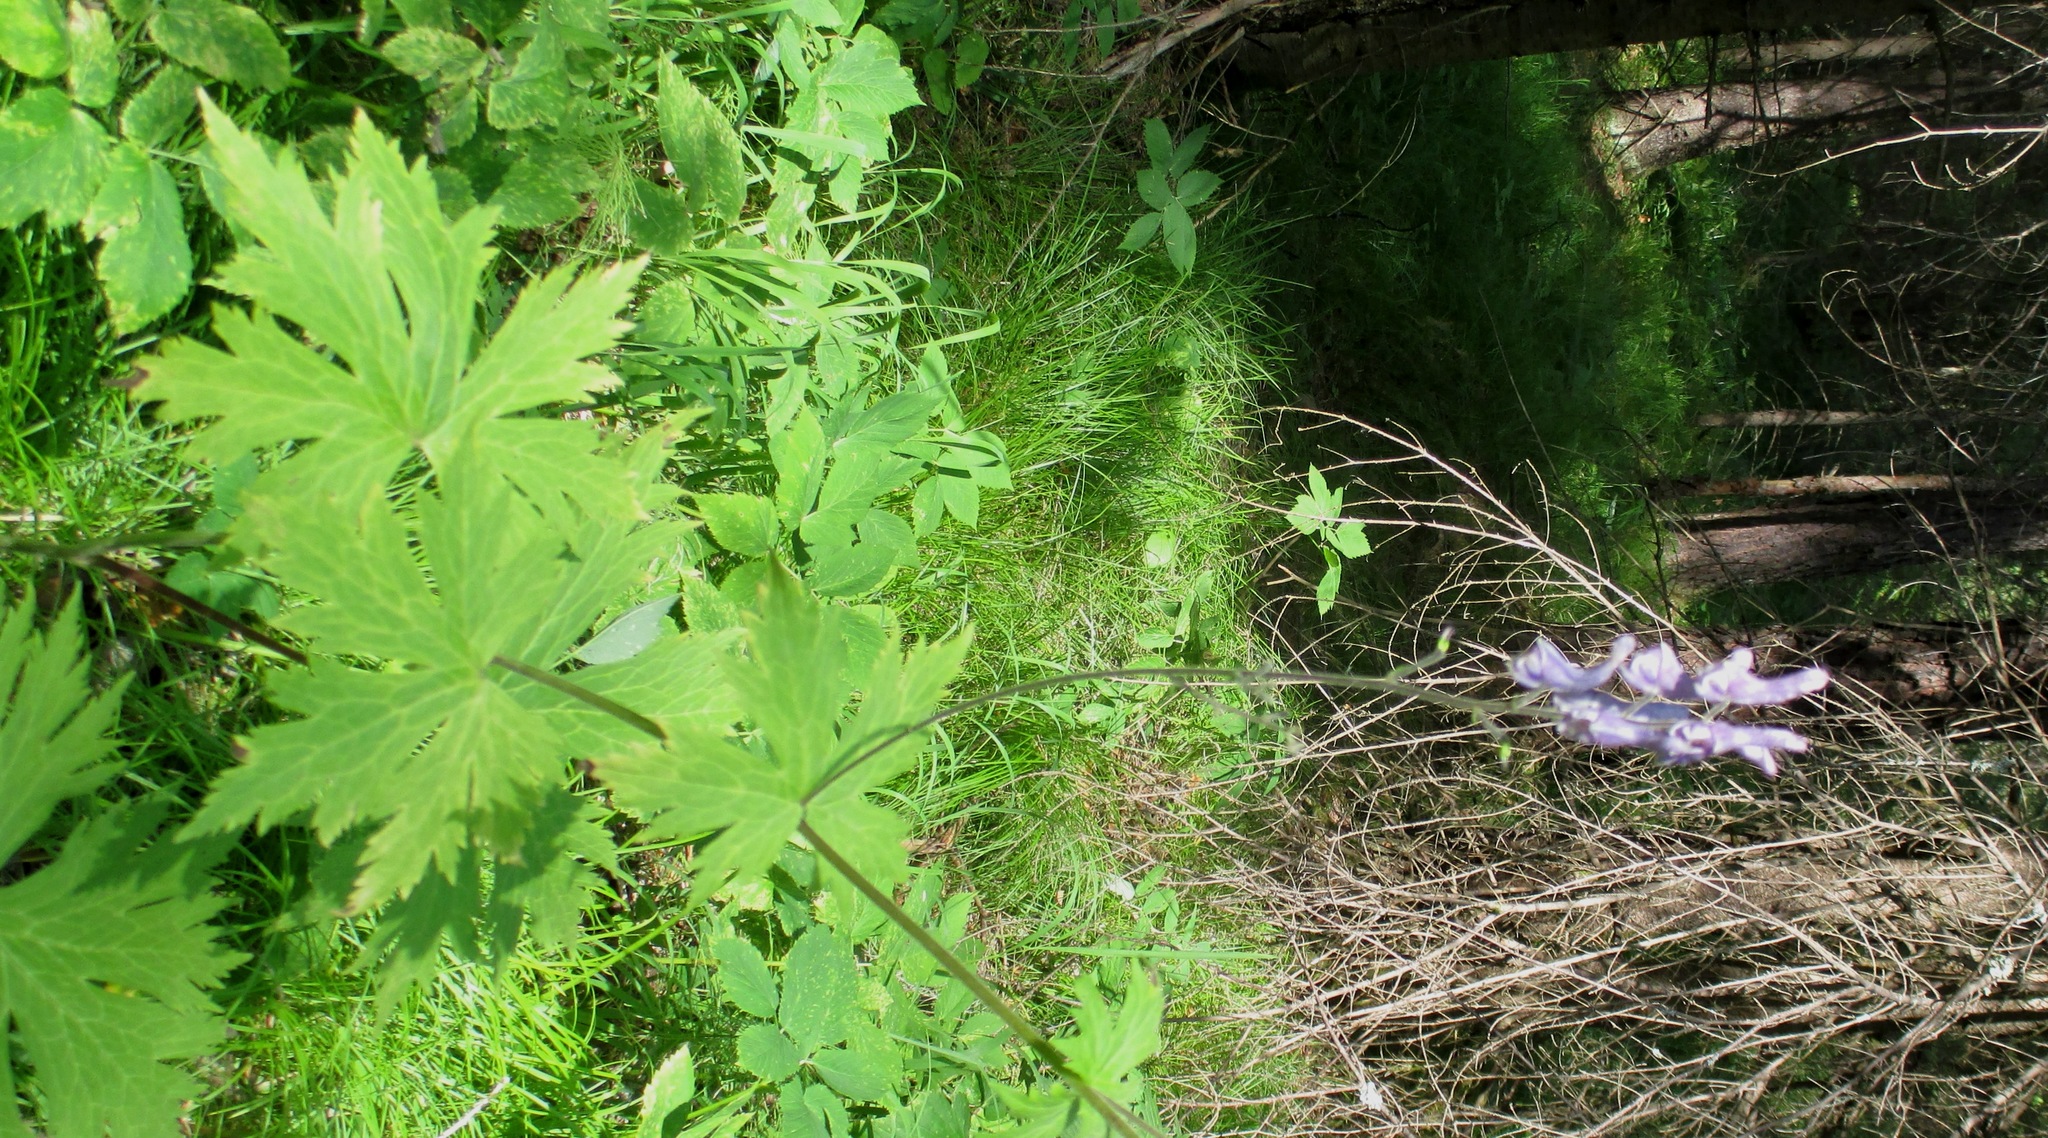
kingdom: Plantae
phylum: Tracheophyta
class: Magnoliopsida
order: Ranunculales
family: Ranunculaceae
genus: Aconitum
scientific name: Aconitum septentrionale
